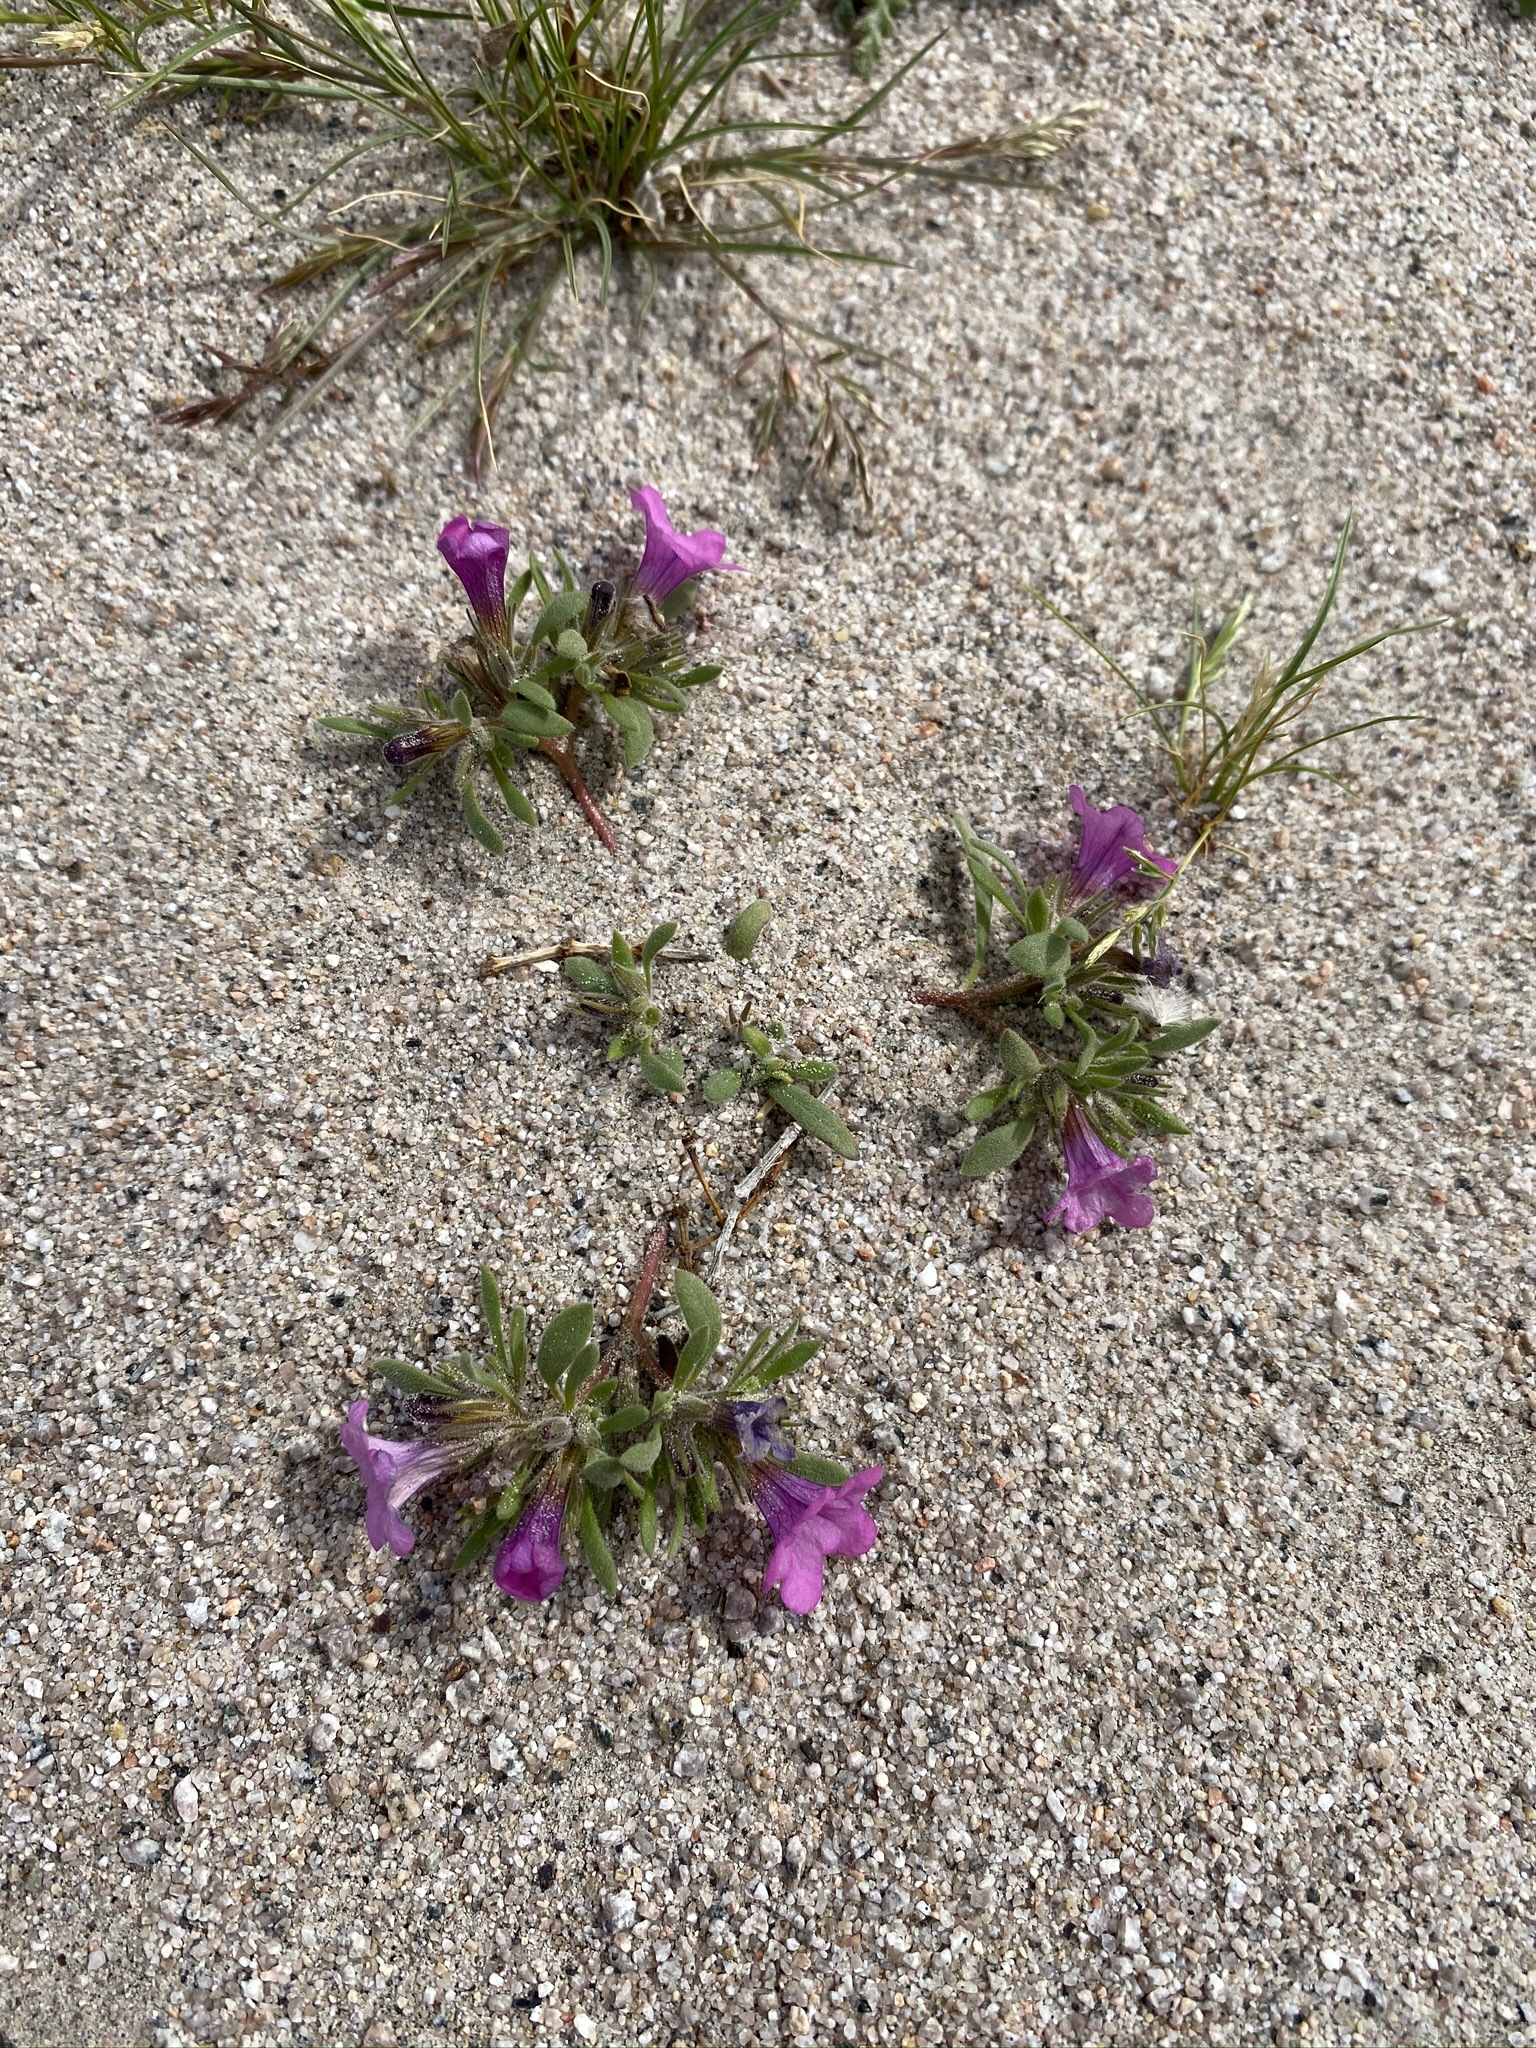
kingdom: Plantae
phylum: Tracheophyta
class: Magnoliopsida
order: Boraginales
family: Namaceae
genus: Nama
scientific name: Nama demissa
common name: Leafy nama
